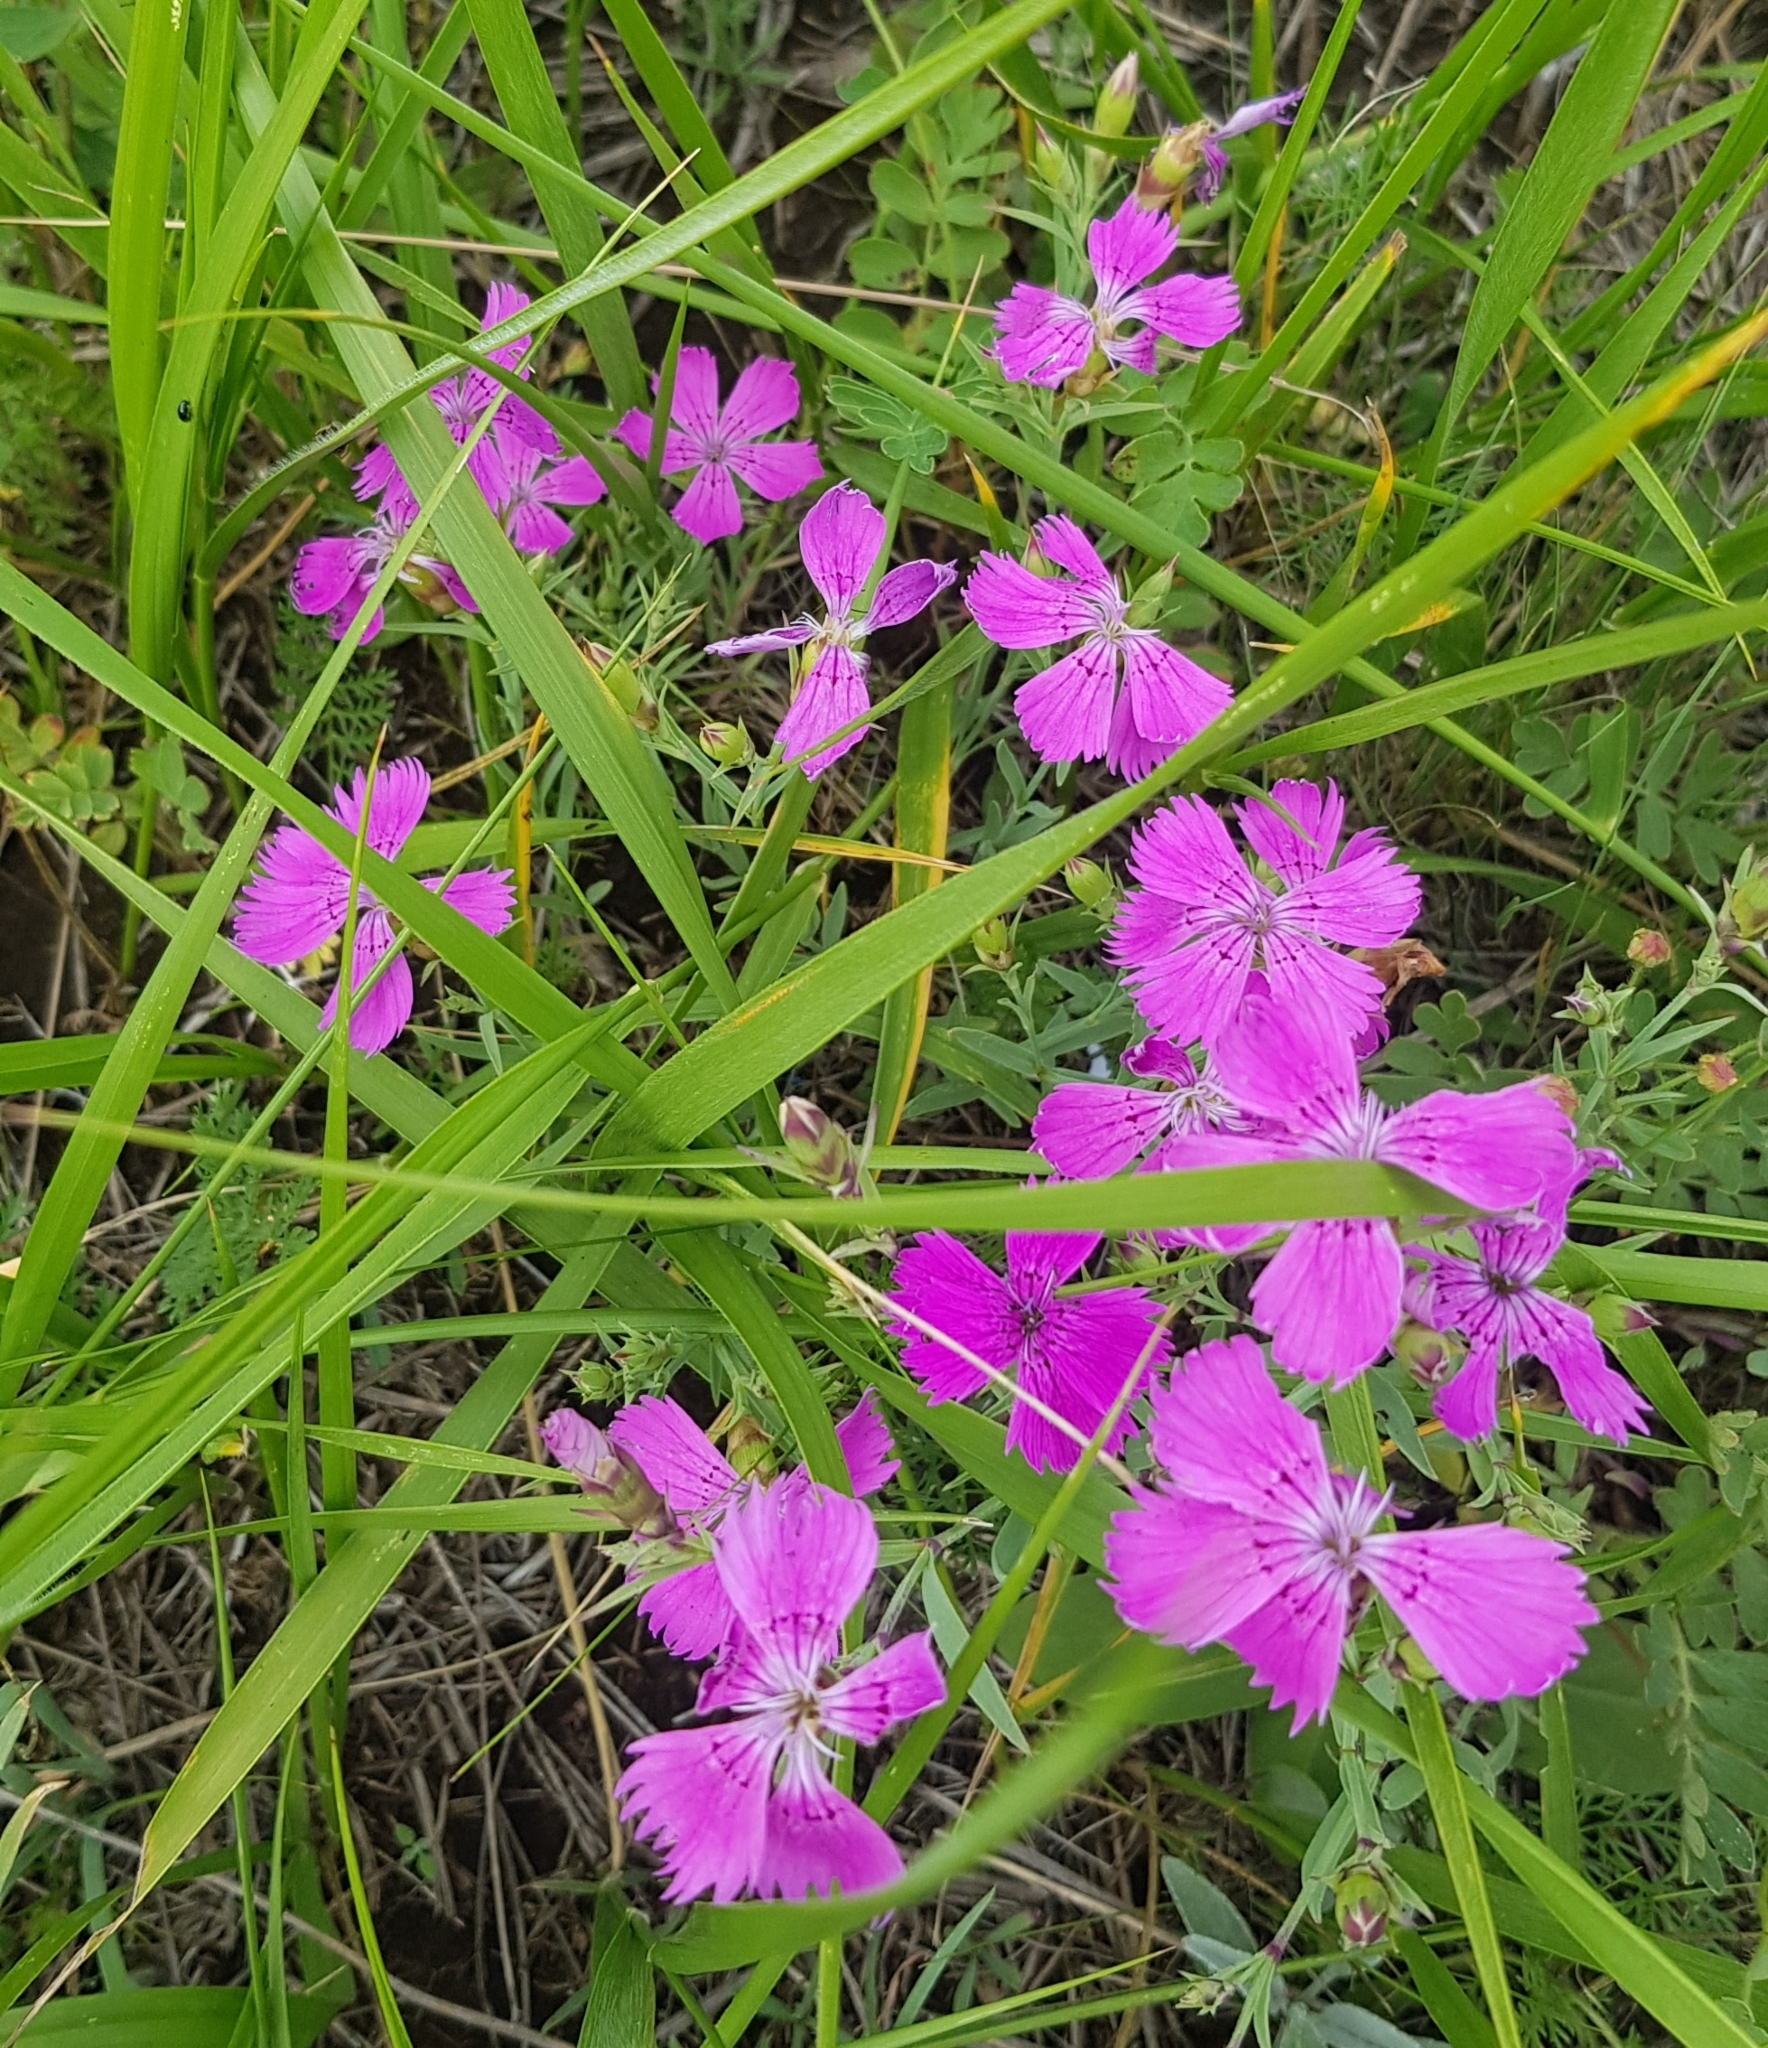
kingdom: Plantae
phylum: Tracheophyta
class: Magnoliopsida
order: Caryophyllales
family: Caryophyllaceae
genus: Dianthus
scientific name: Dianthus chinensis
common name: Rainbow pink
